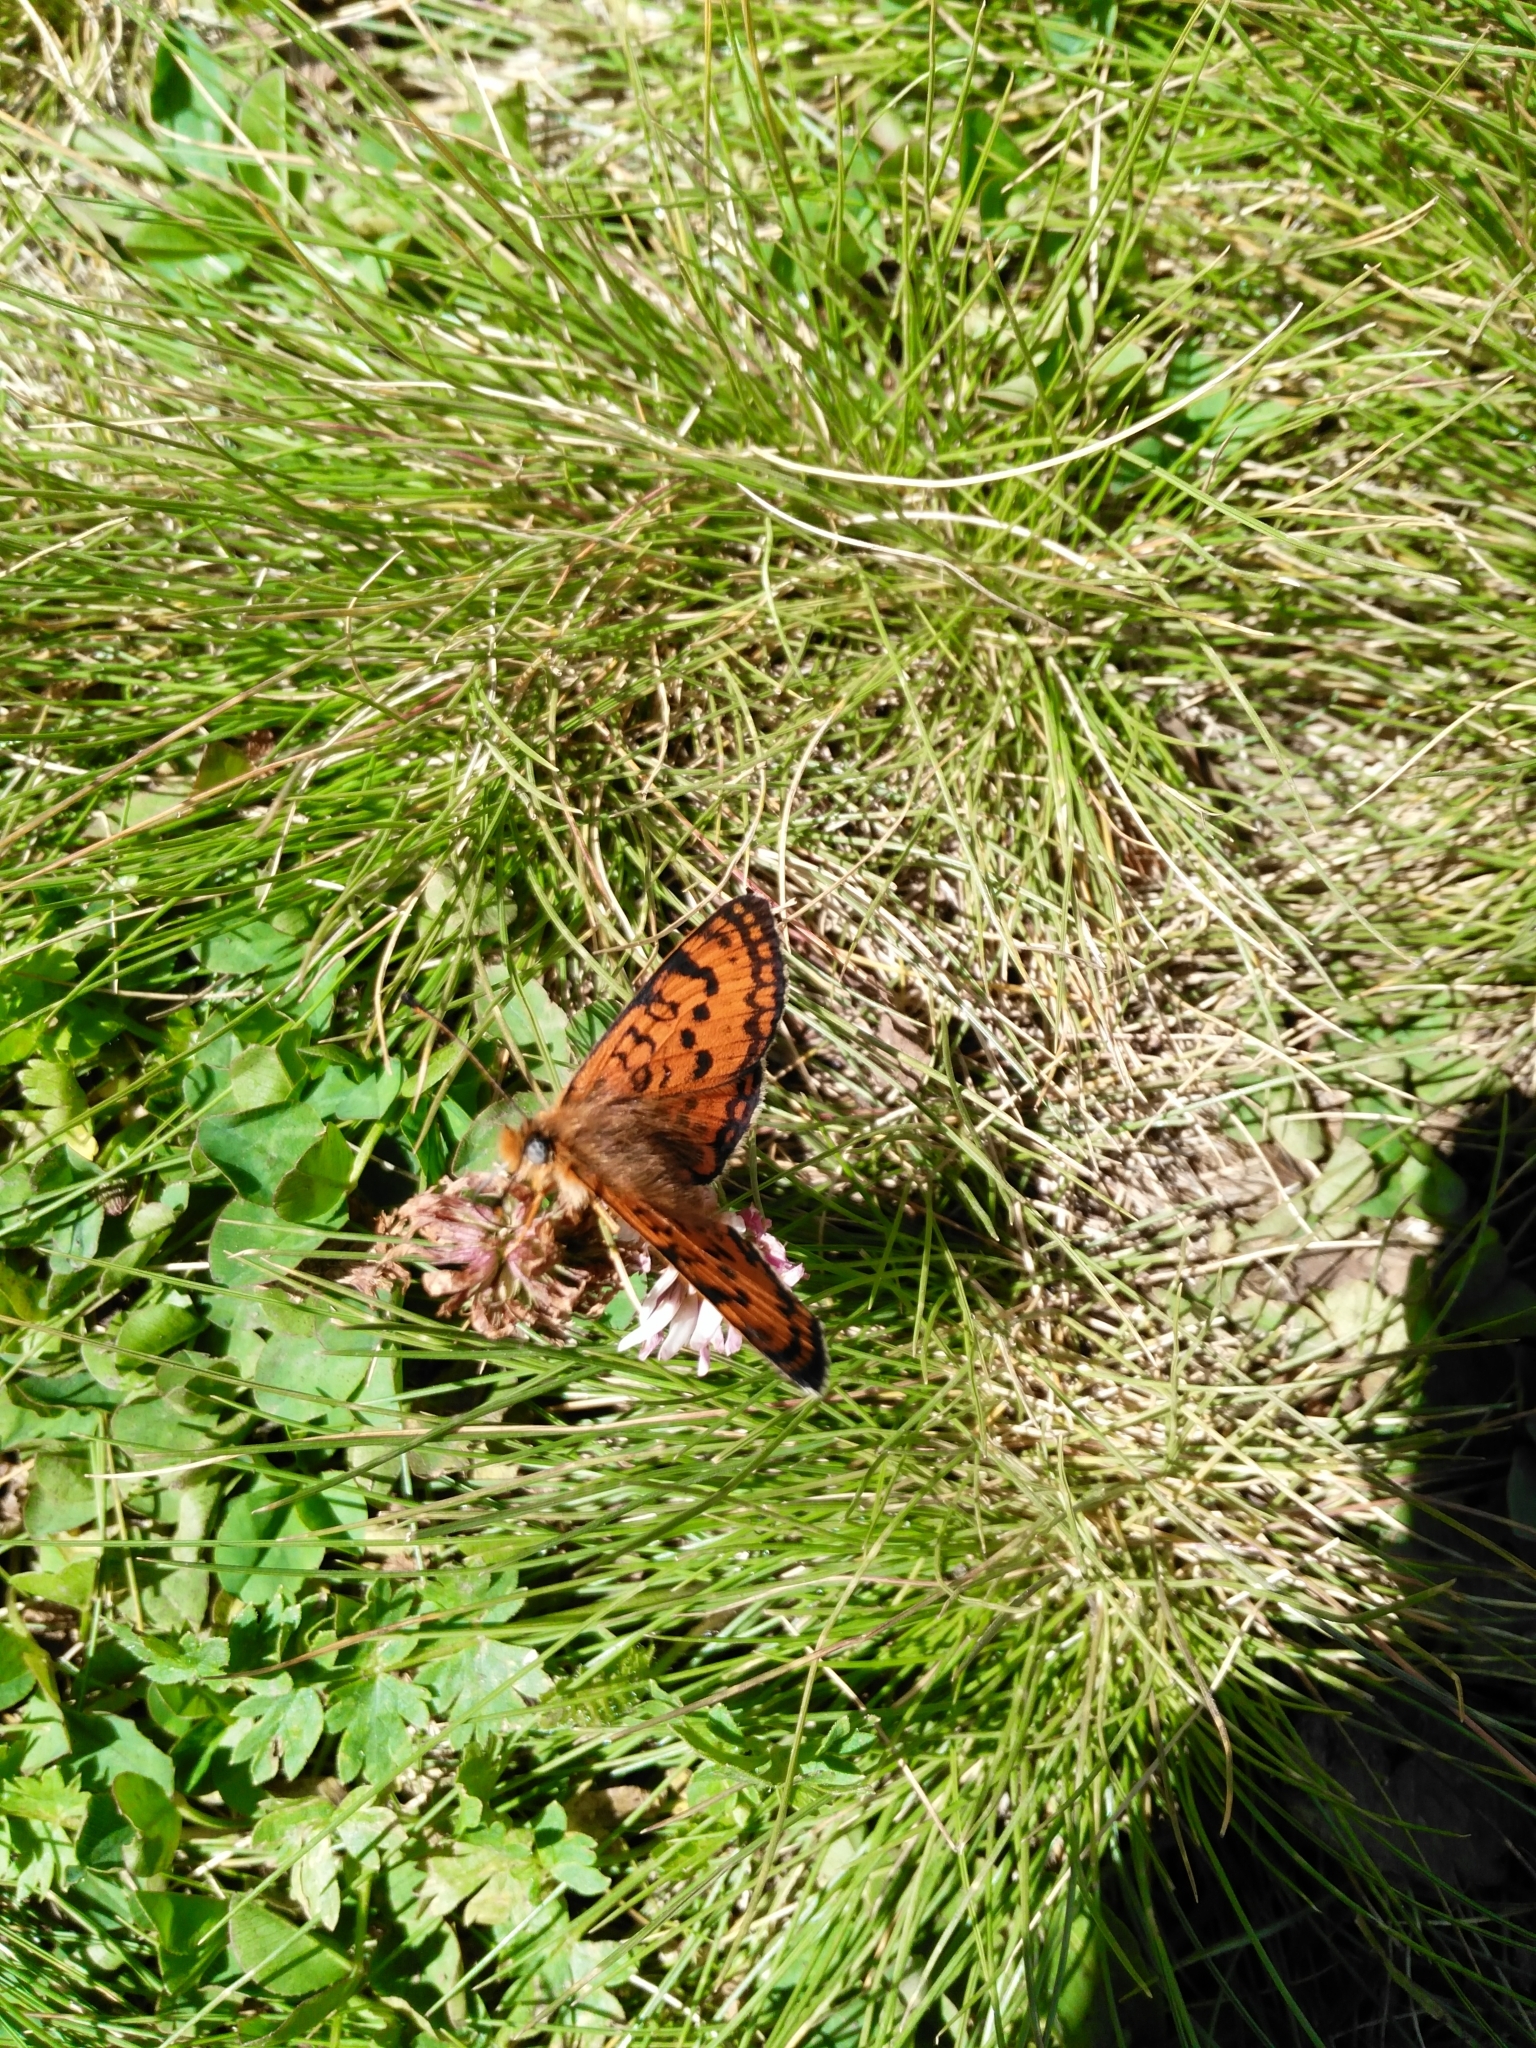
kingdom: Animalia
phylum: Arthropoda
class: Insecta
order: Lepidoptera
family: Nymphalidae
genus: Melitaea
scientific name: Melitaea cinxia
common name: Glanville fritillary
